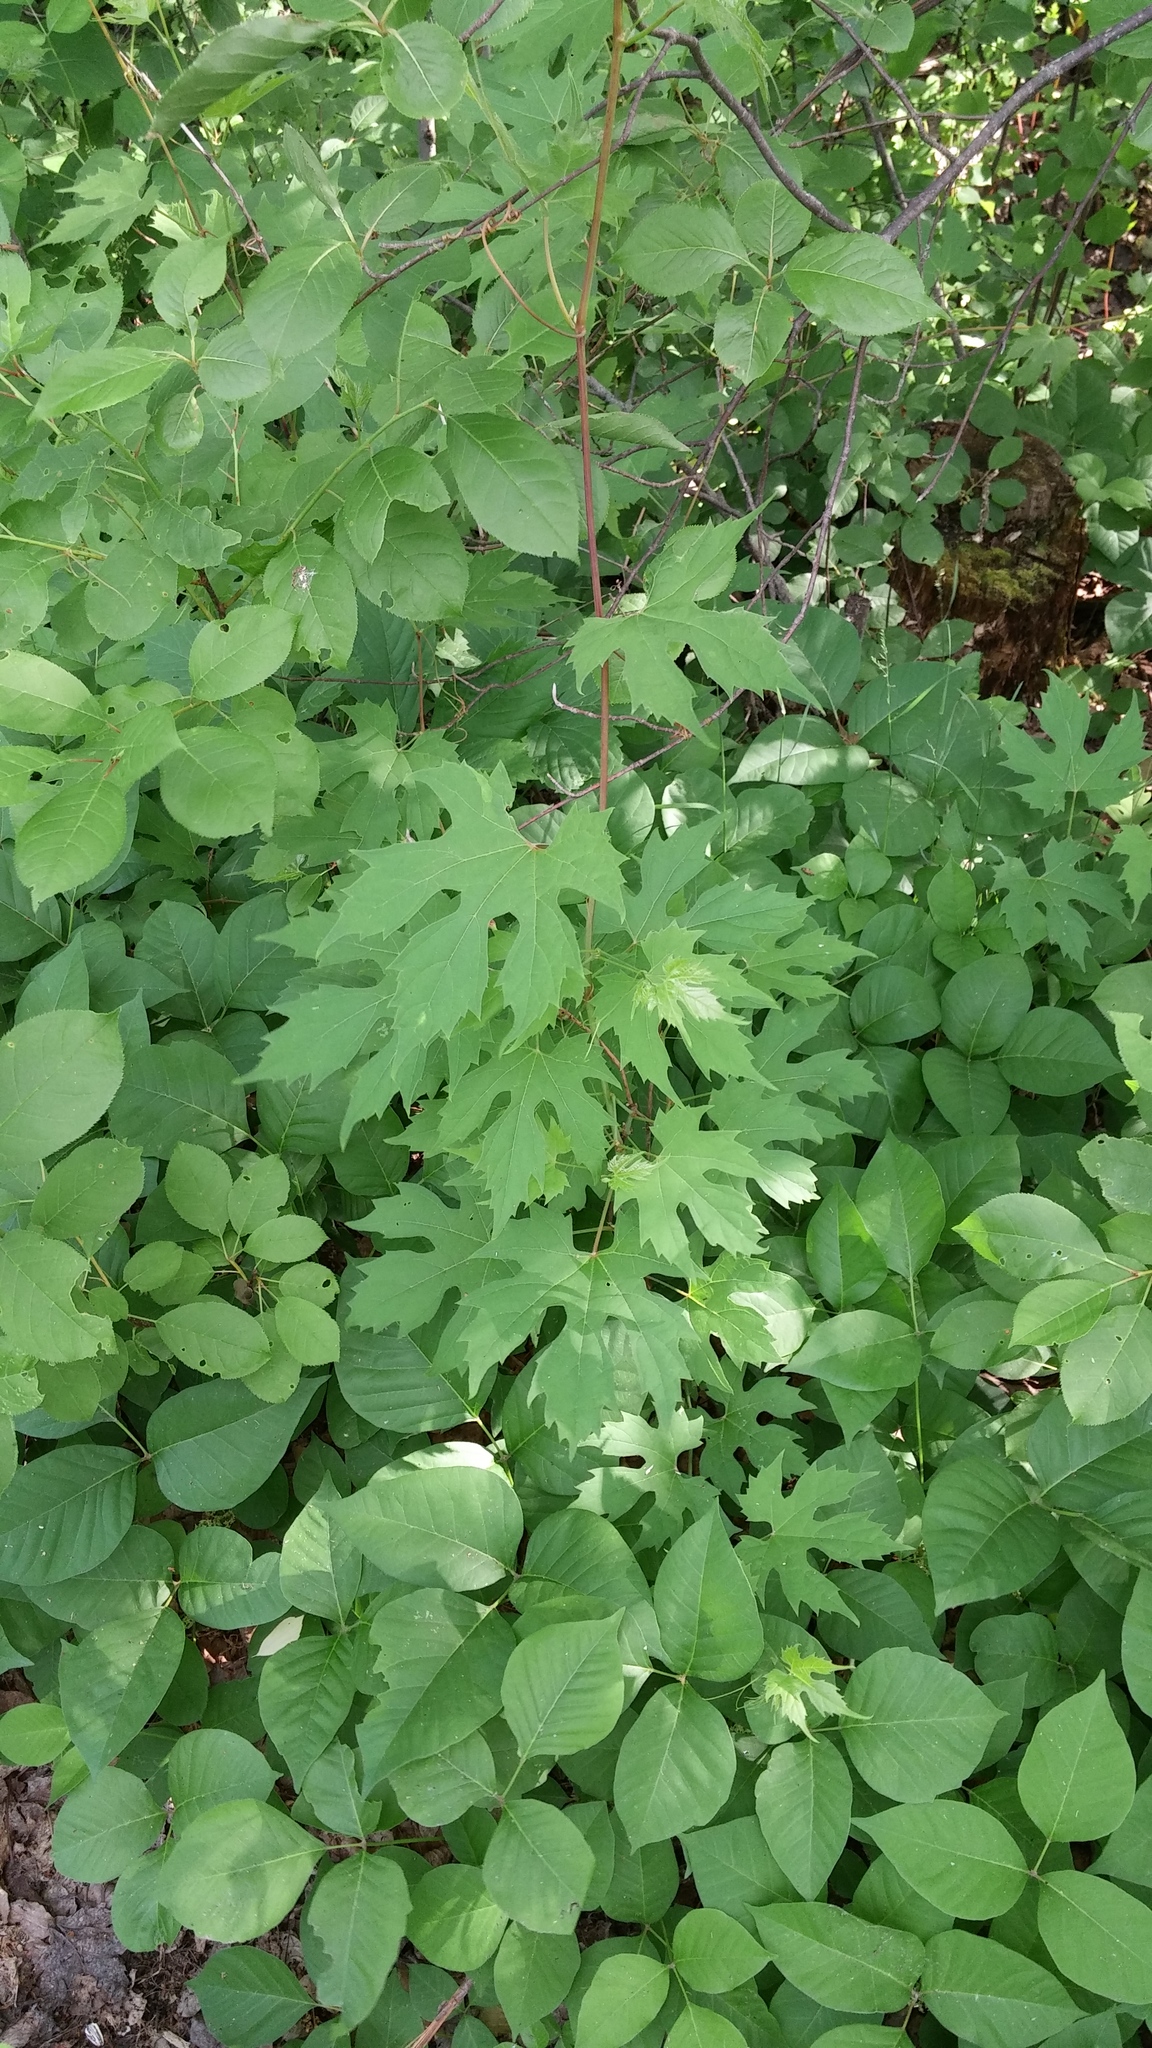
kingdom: Plantae
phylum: Tracheophyta
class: Magnoliopsida
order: Vitales
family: Vitaceae
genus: Vitis
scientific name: Vitis riparia
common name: Frost grape
